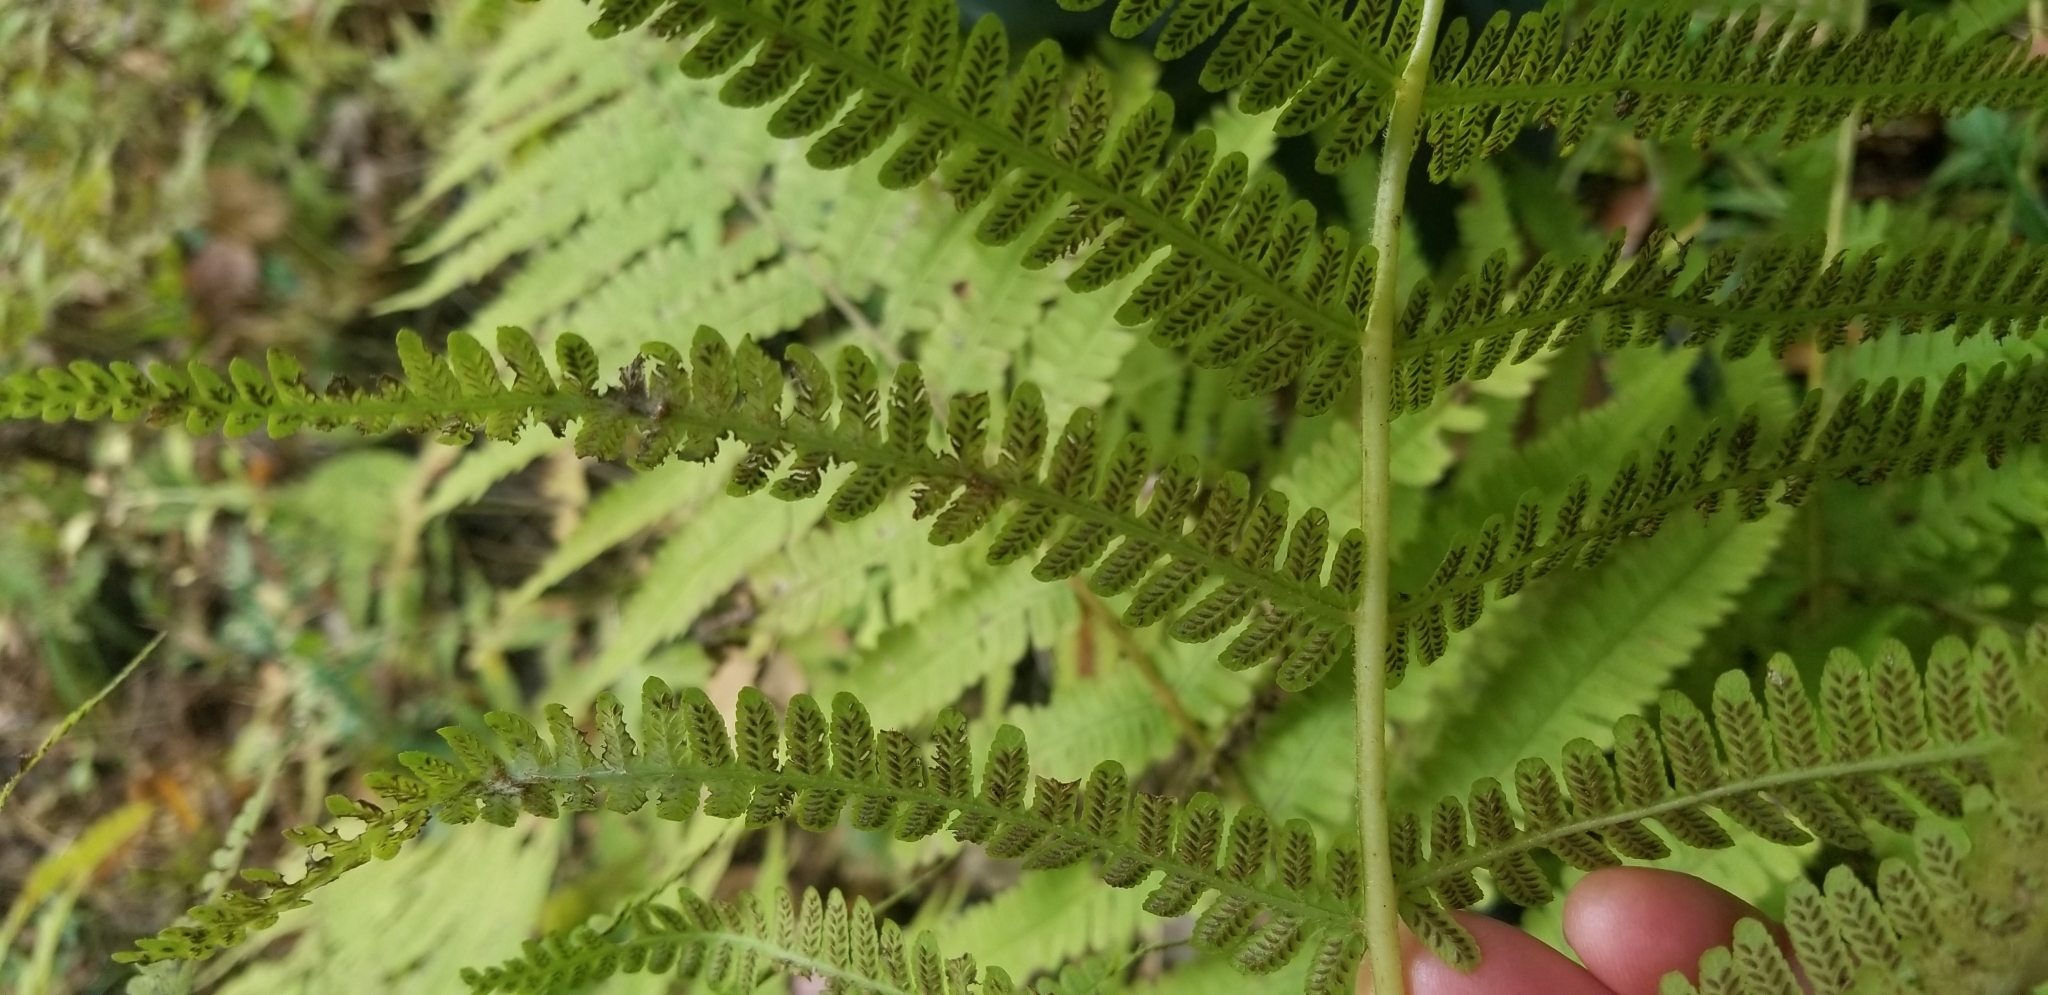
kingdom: Plantae
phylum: Tracheophyta
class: Polypodiopsida
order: Polypodiales
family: Athyriaceae
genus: Deparia
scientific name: Deparia acrostichoides
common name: Silver false spleenwort
